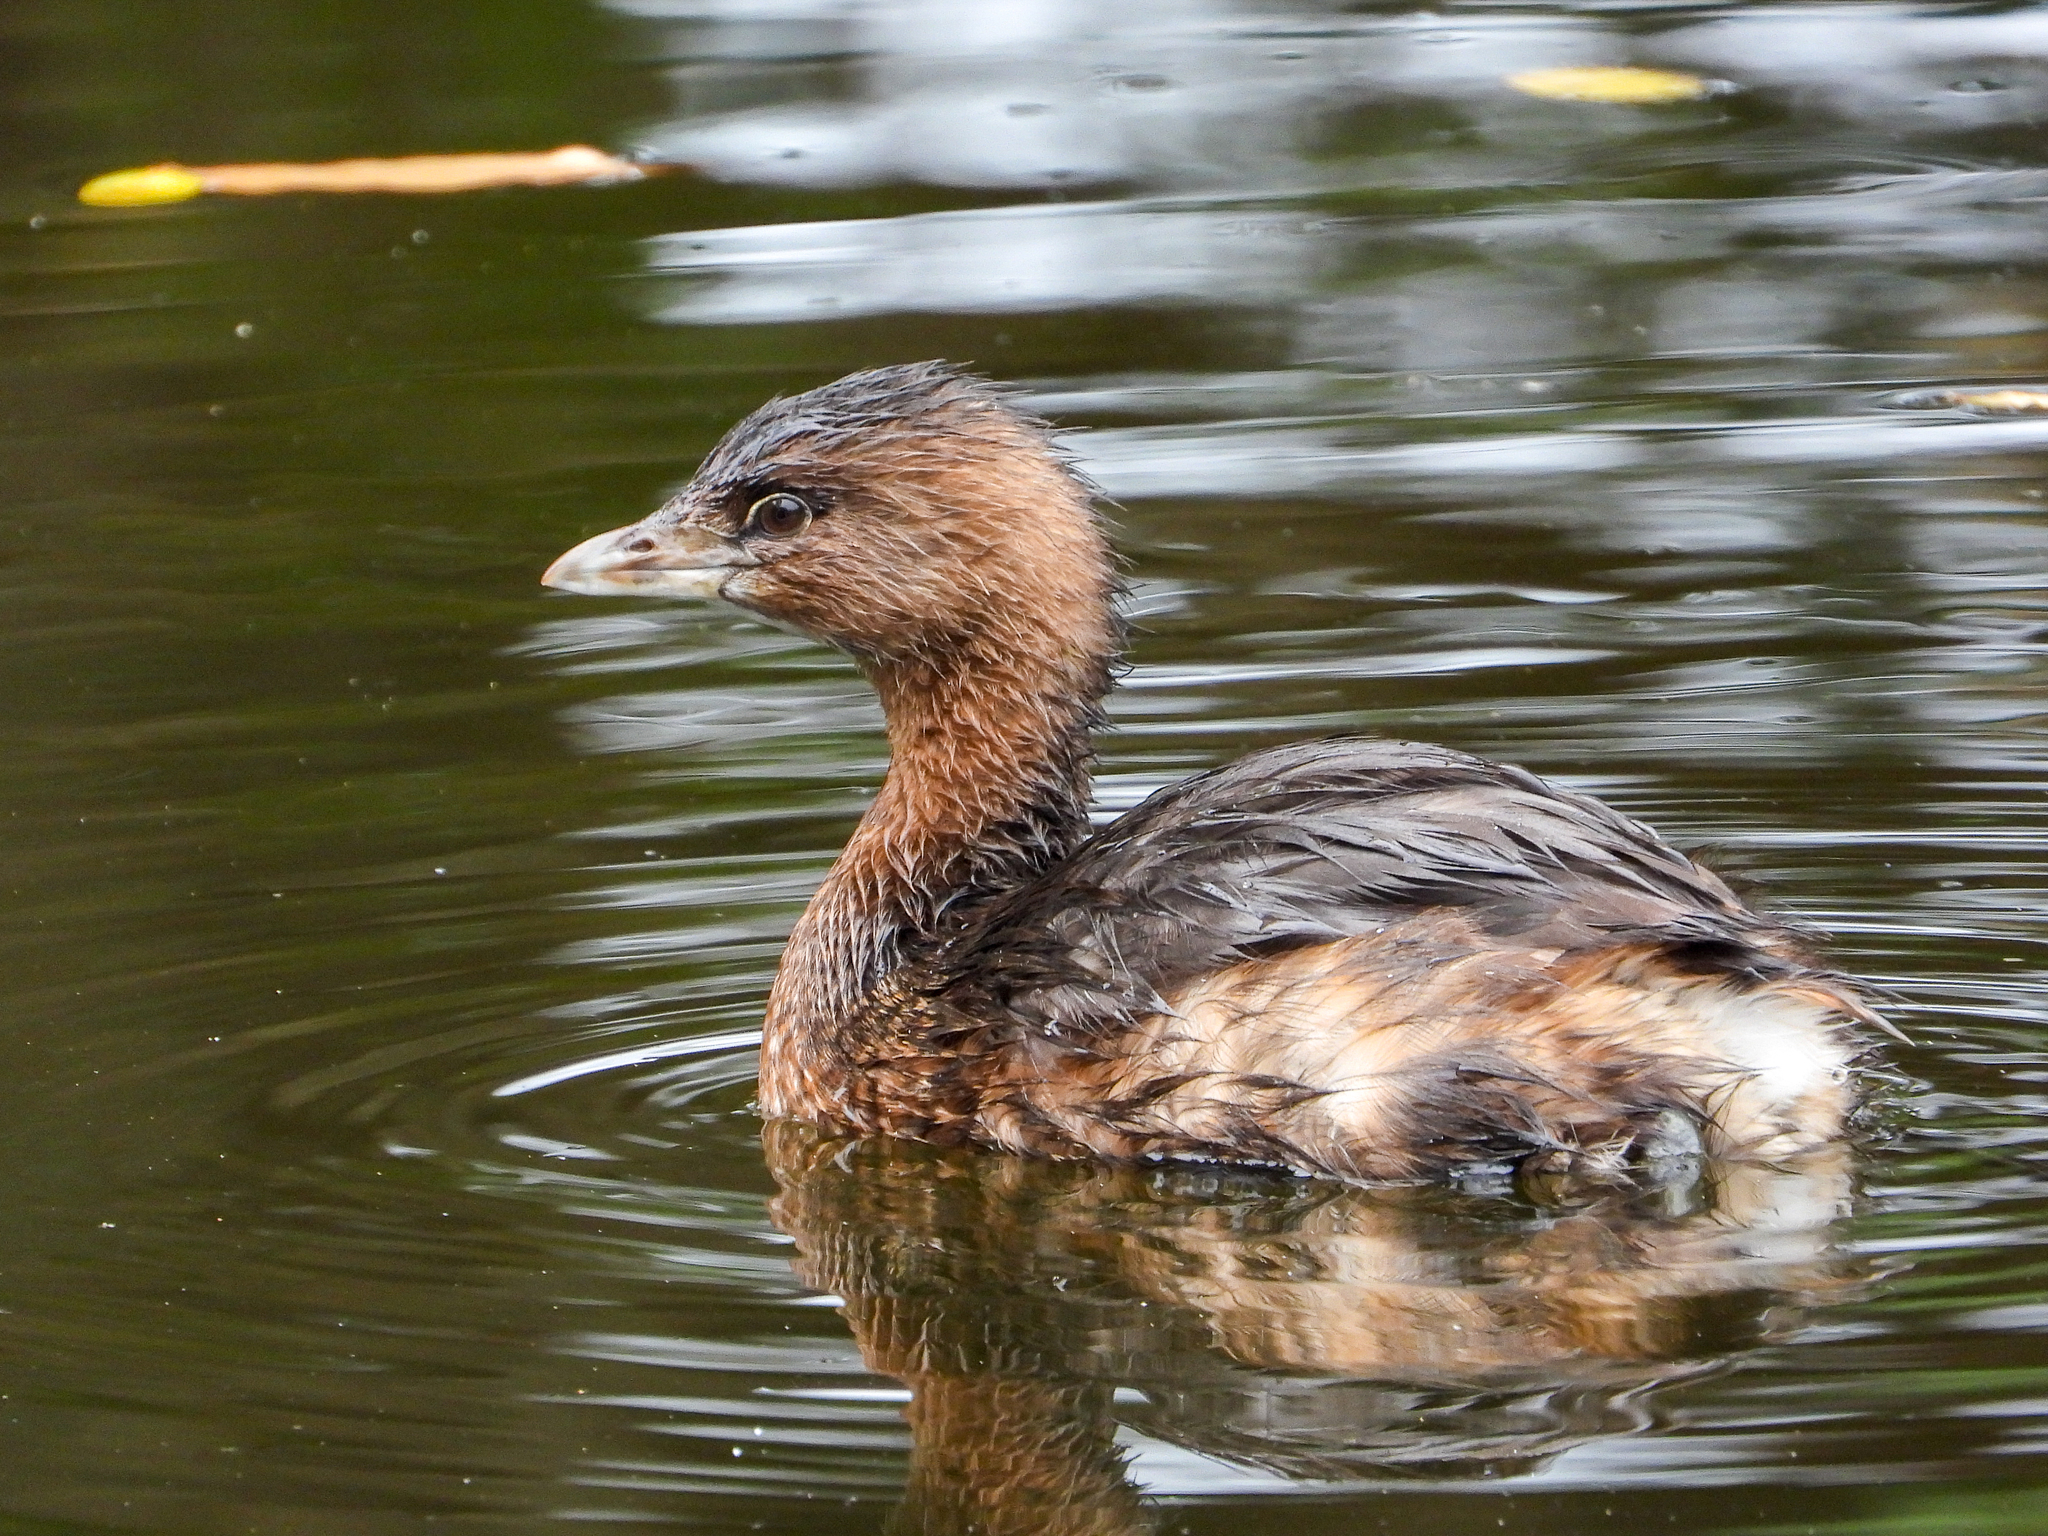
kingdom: Animalia
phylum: Chordata
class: Aves
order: Podicipediformes
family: Podicipedidae
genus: Podilymbus
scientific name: Podilymbus podiceps
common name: Pied-billed grebe
